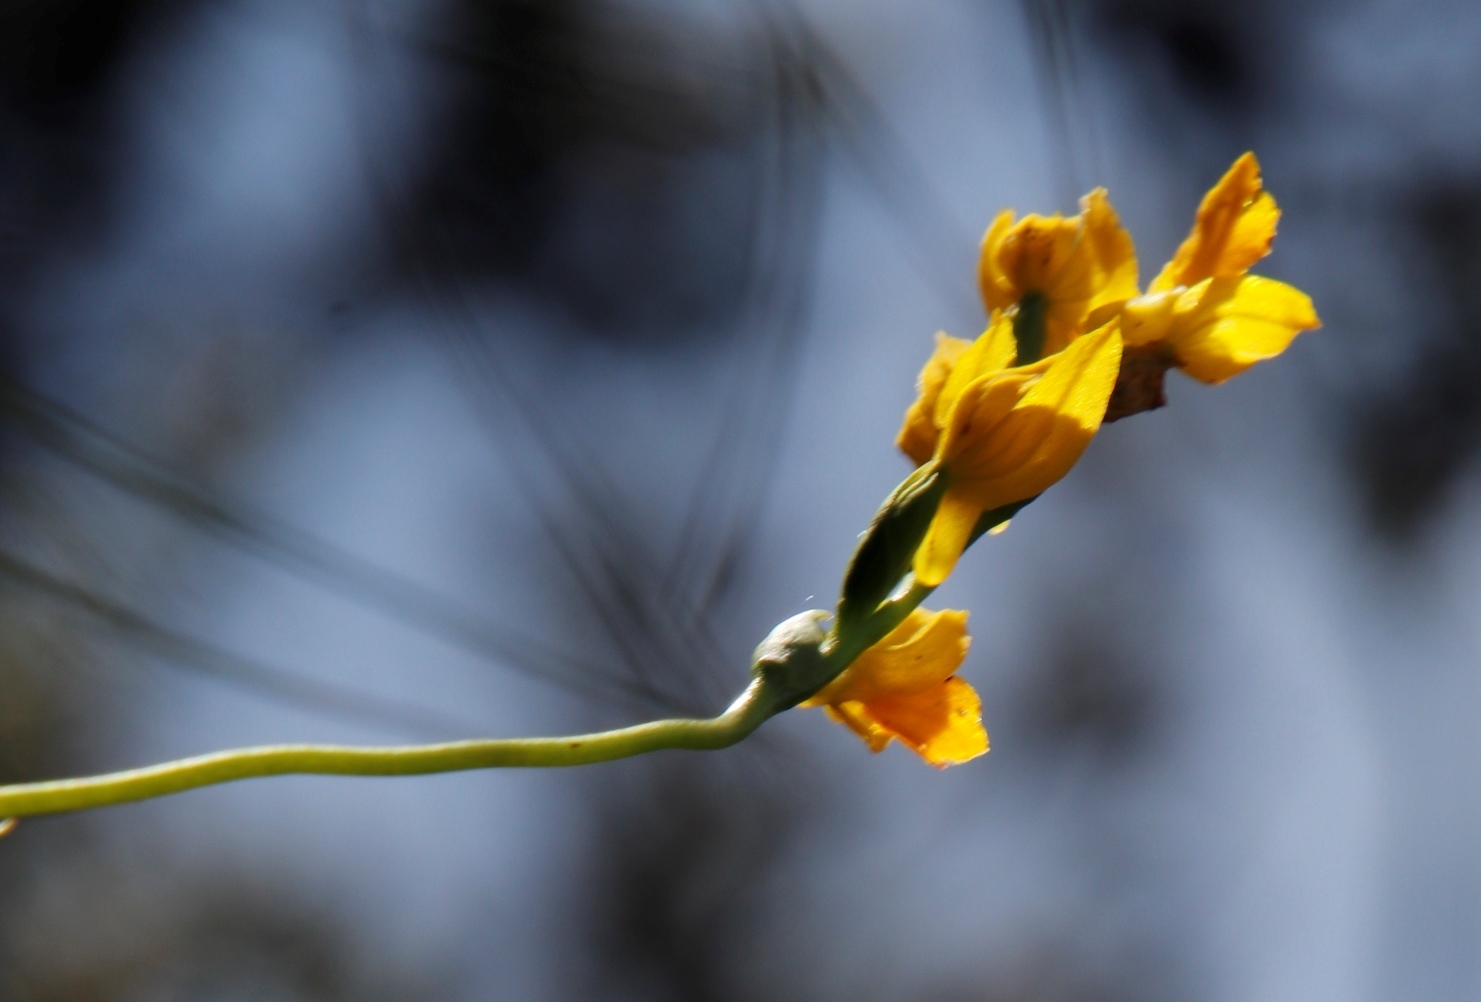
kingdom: Plantae
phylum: Tracheophyta
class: Liliopsida
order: Asparagales
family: Orchidaceae
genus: Schizochilus
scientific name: Schizochilus zeyheri
